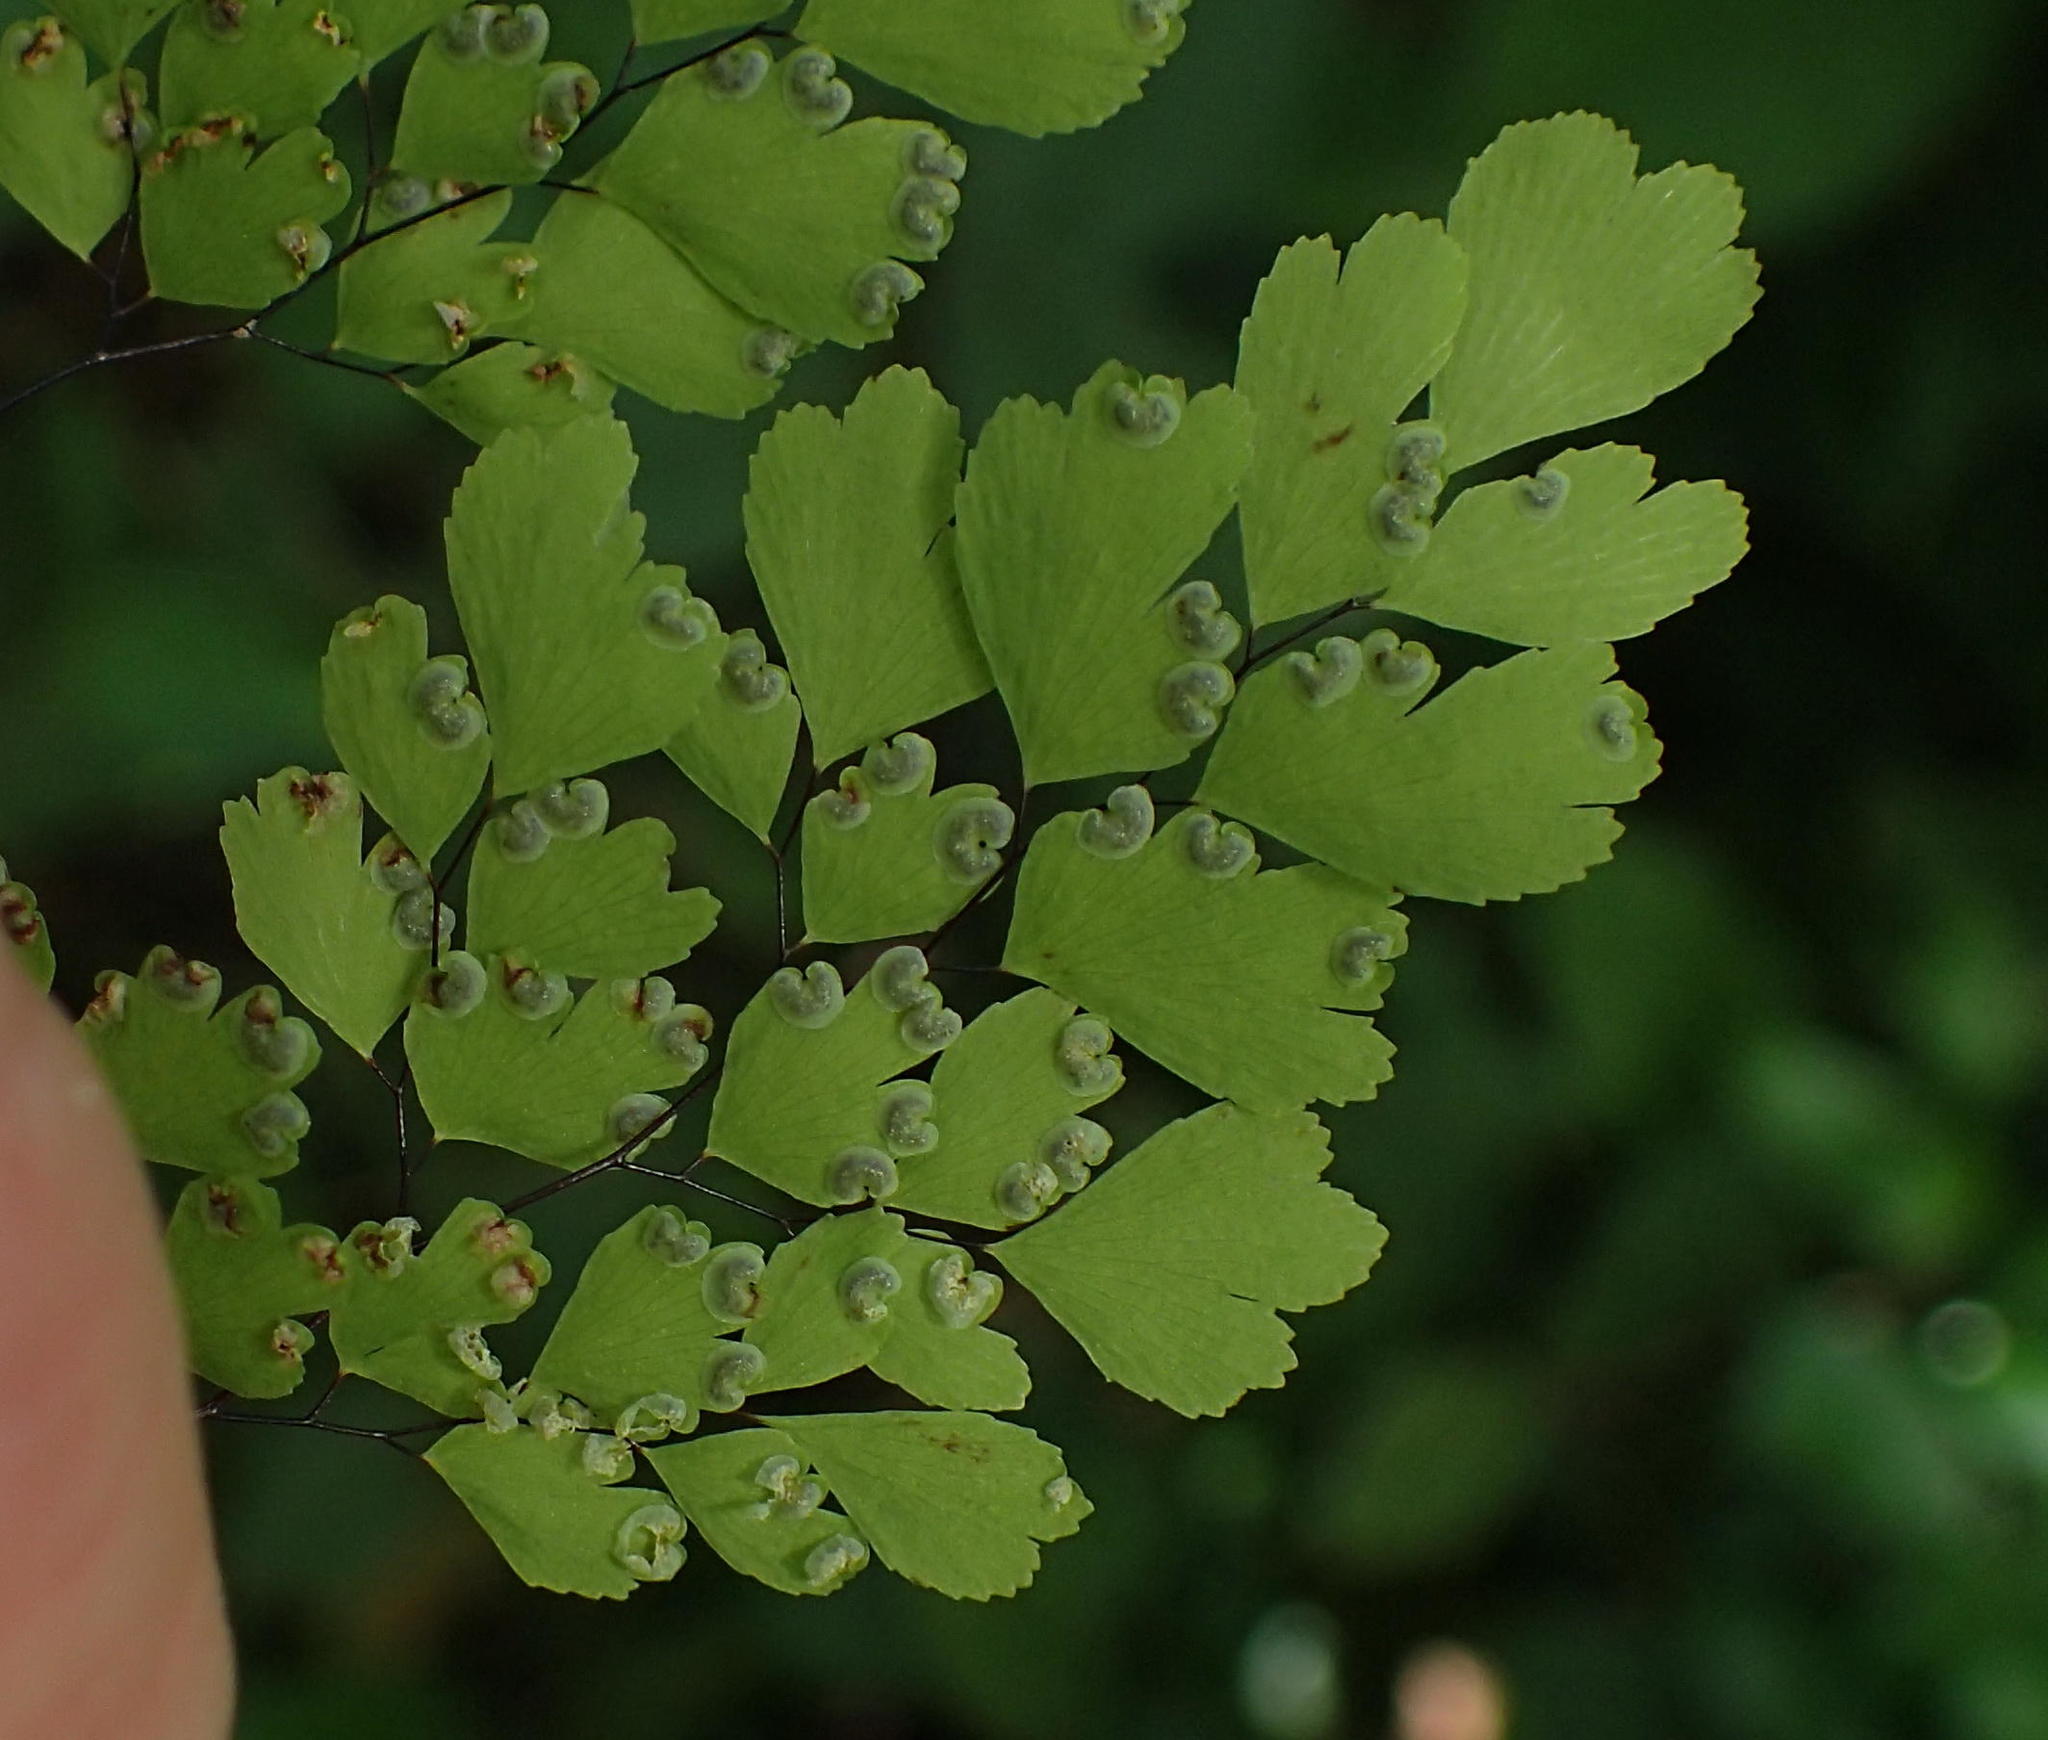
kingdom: Plantae
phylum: Tracheophyta
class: Polypodiopsida
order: Polypodiales
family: Pteridaceae
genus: Adiantum
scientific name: Adiantum raddianum
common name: Delta maidenhair fern
